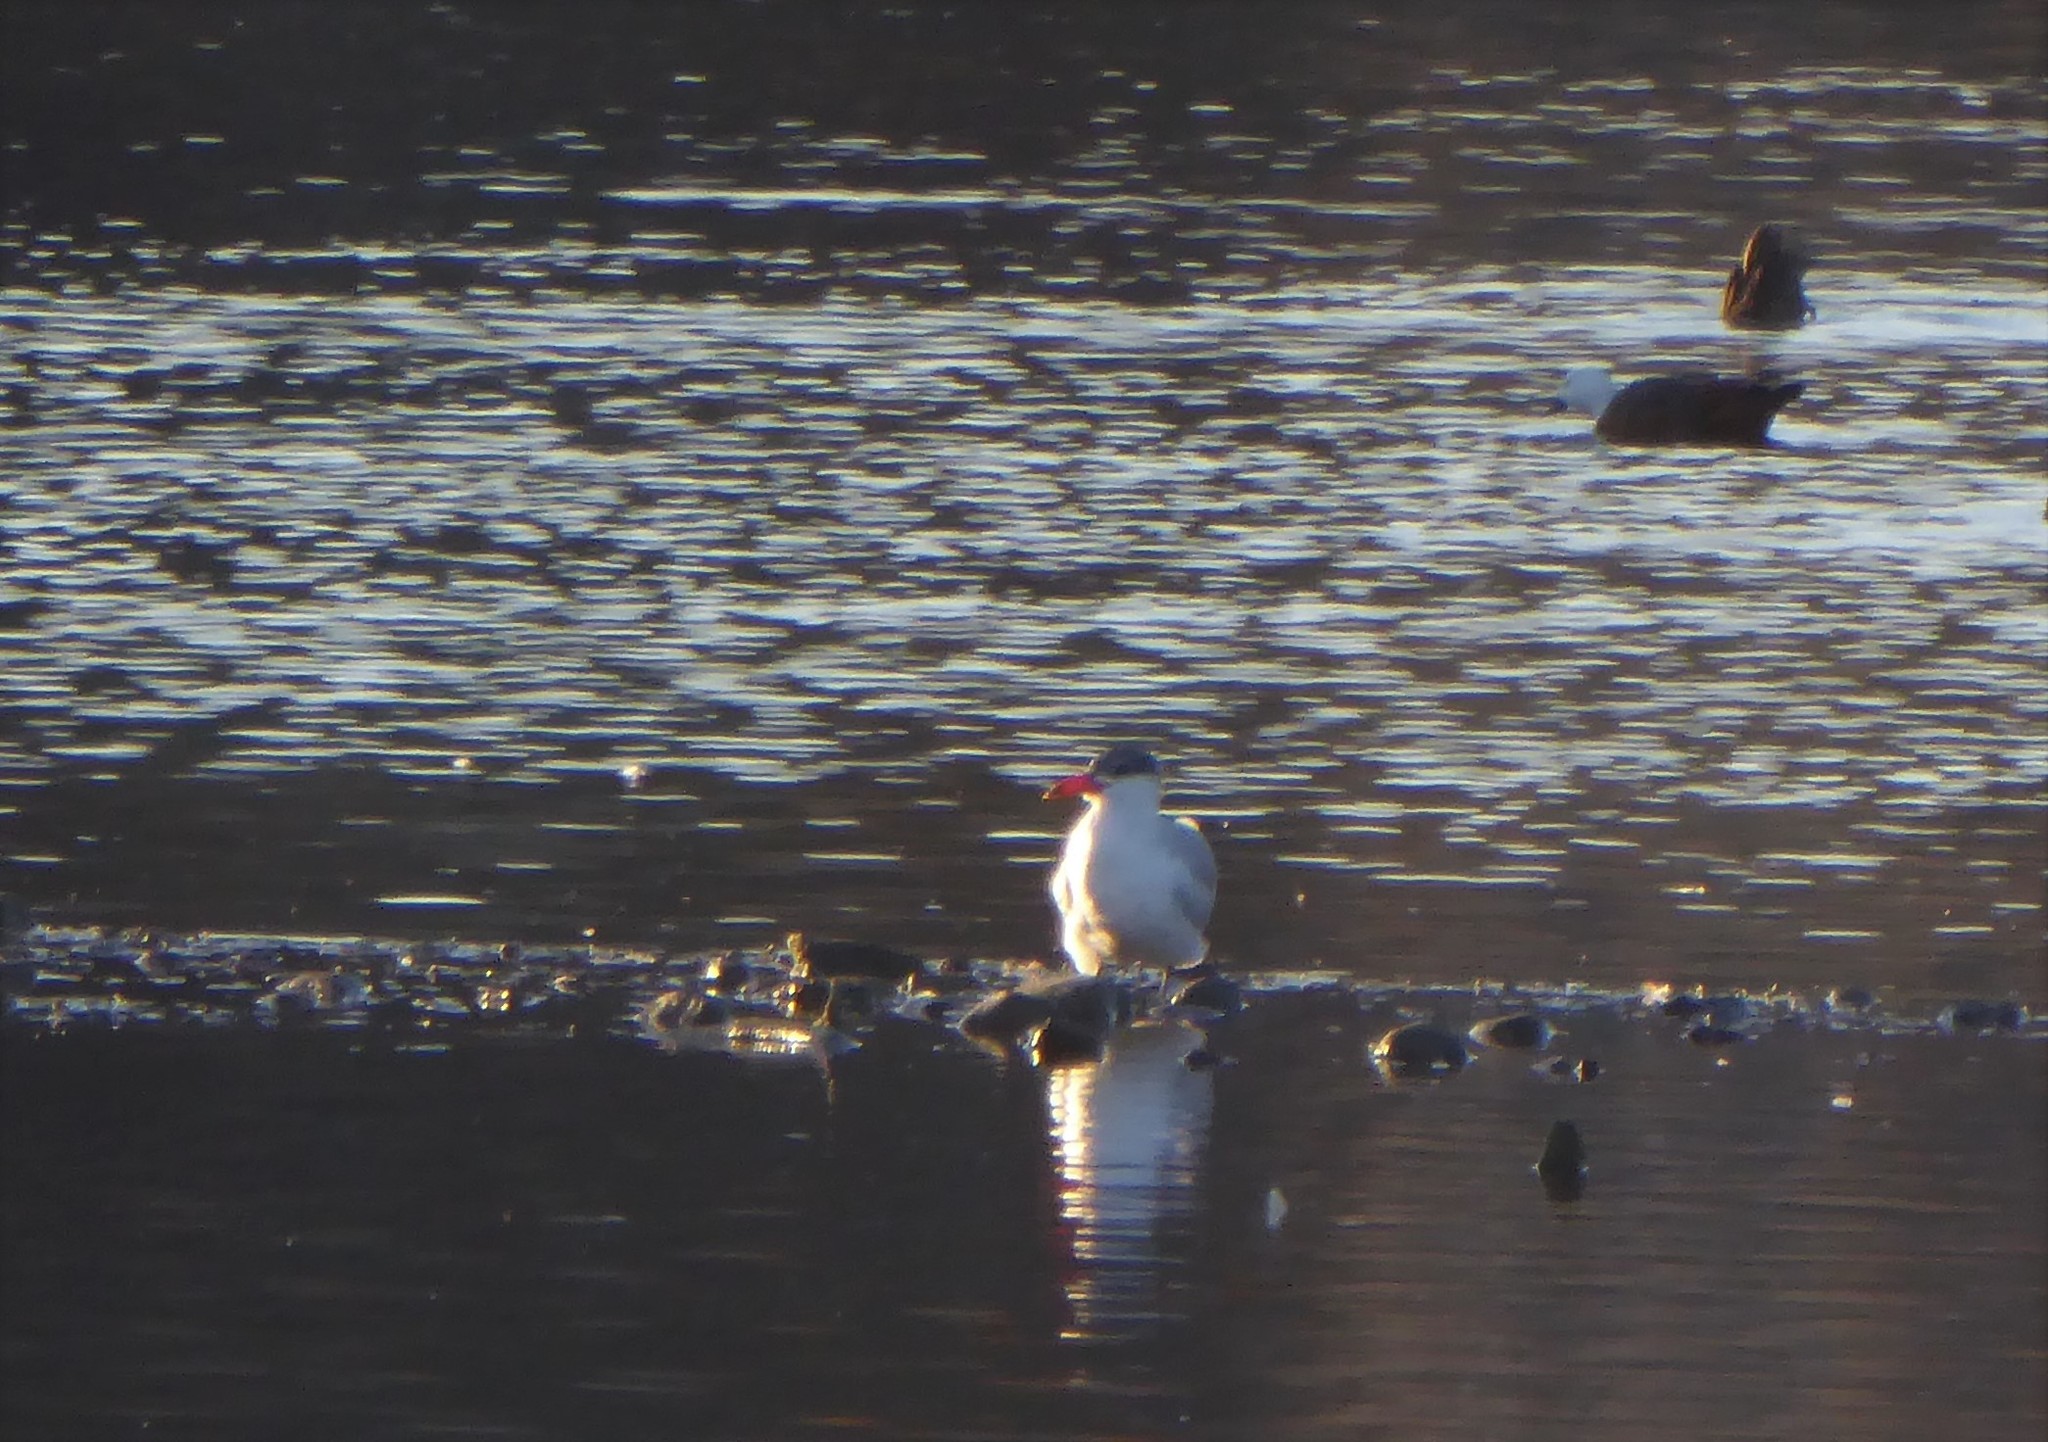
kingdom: Animalia
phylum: Chordata
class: Aves
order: Charadriiformes
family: Laridae
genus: Hydroprogne
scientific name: Hydroprogne caspia
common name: Caspian tern
